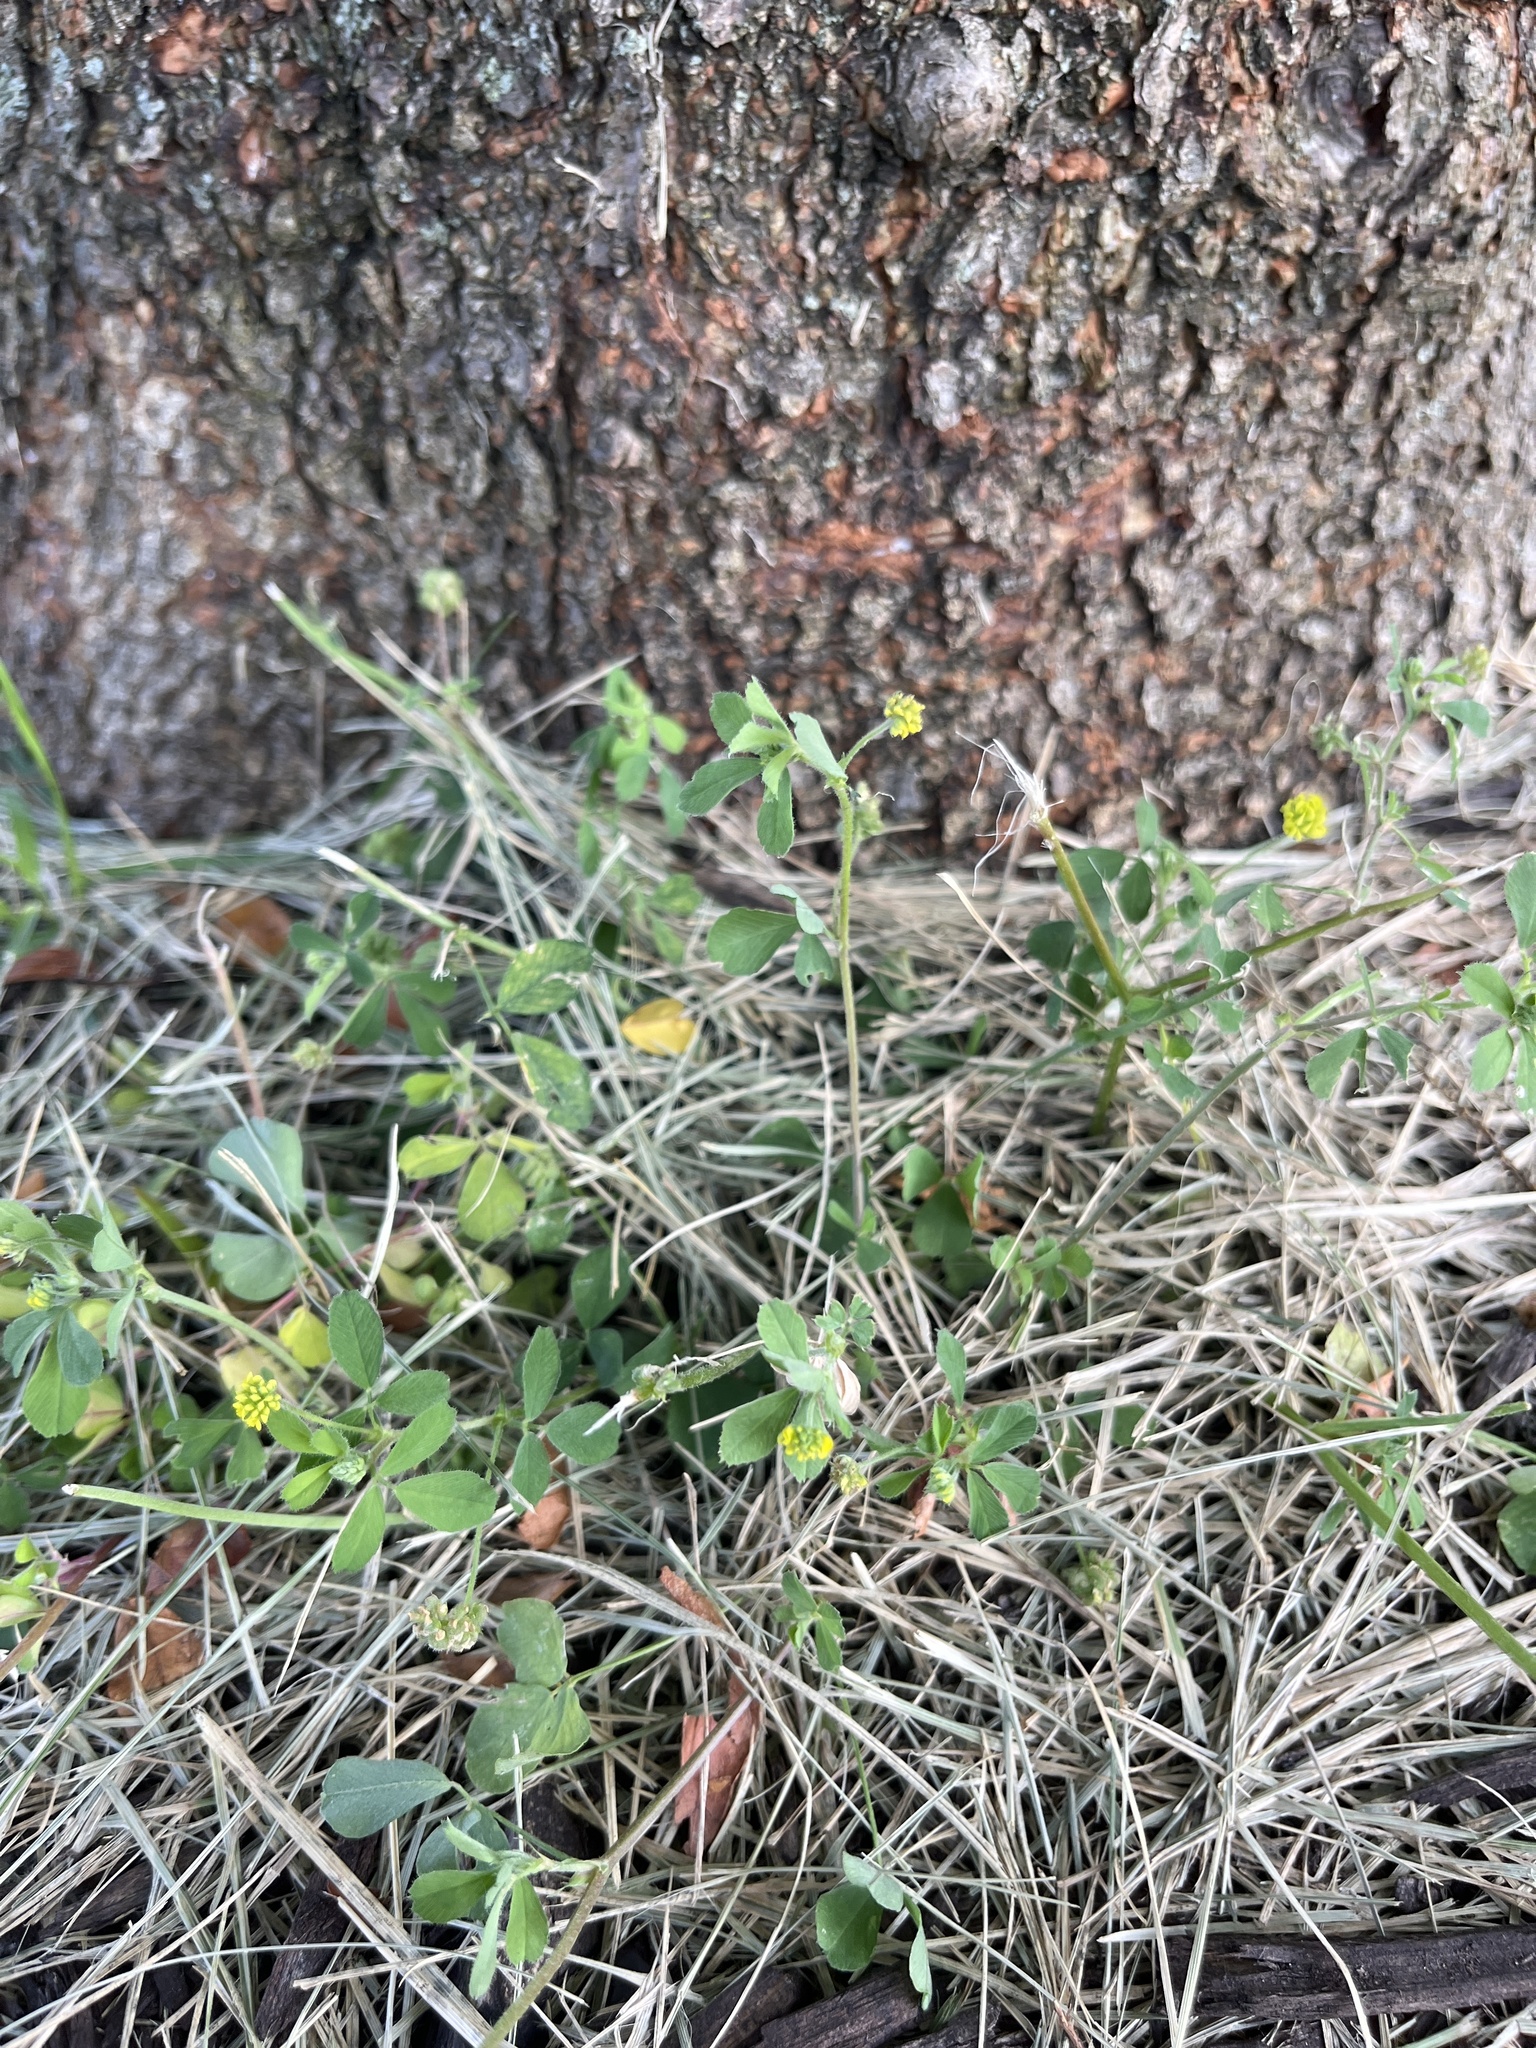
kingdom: Plantae
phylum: Tracheophyta
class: Magnoliopsida
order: Fabales
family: Fabaceae
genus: Medicago
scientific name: Medicago lupulina
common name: Black medick
